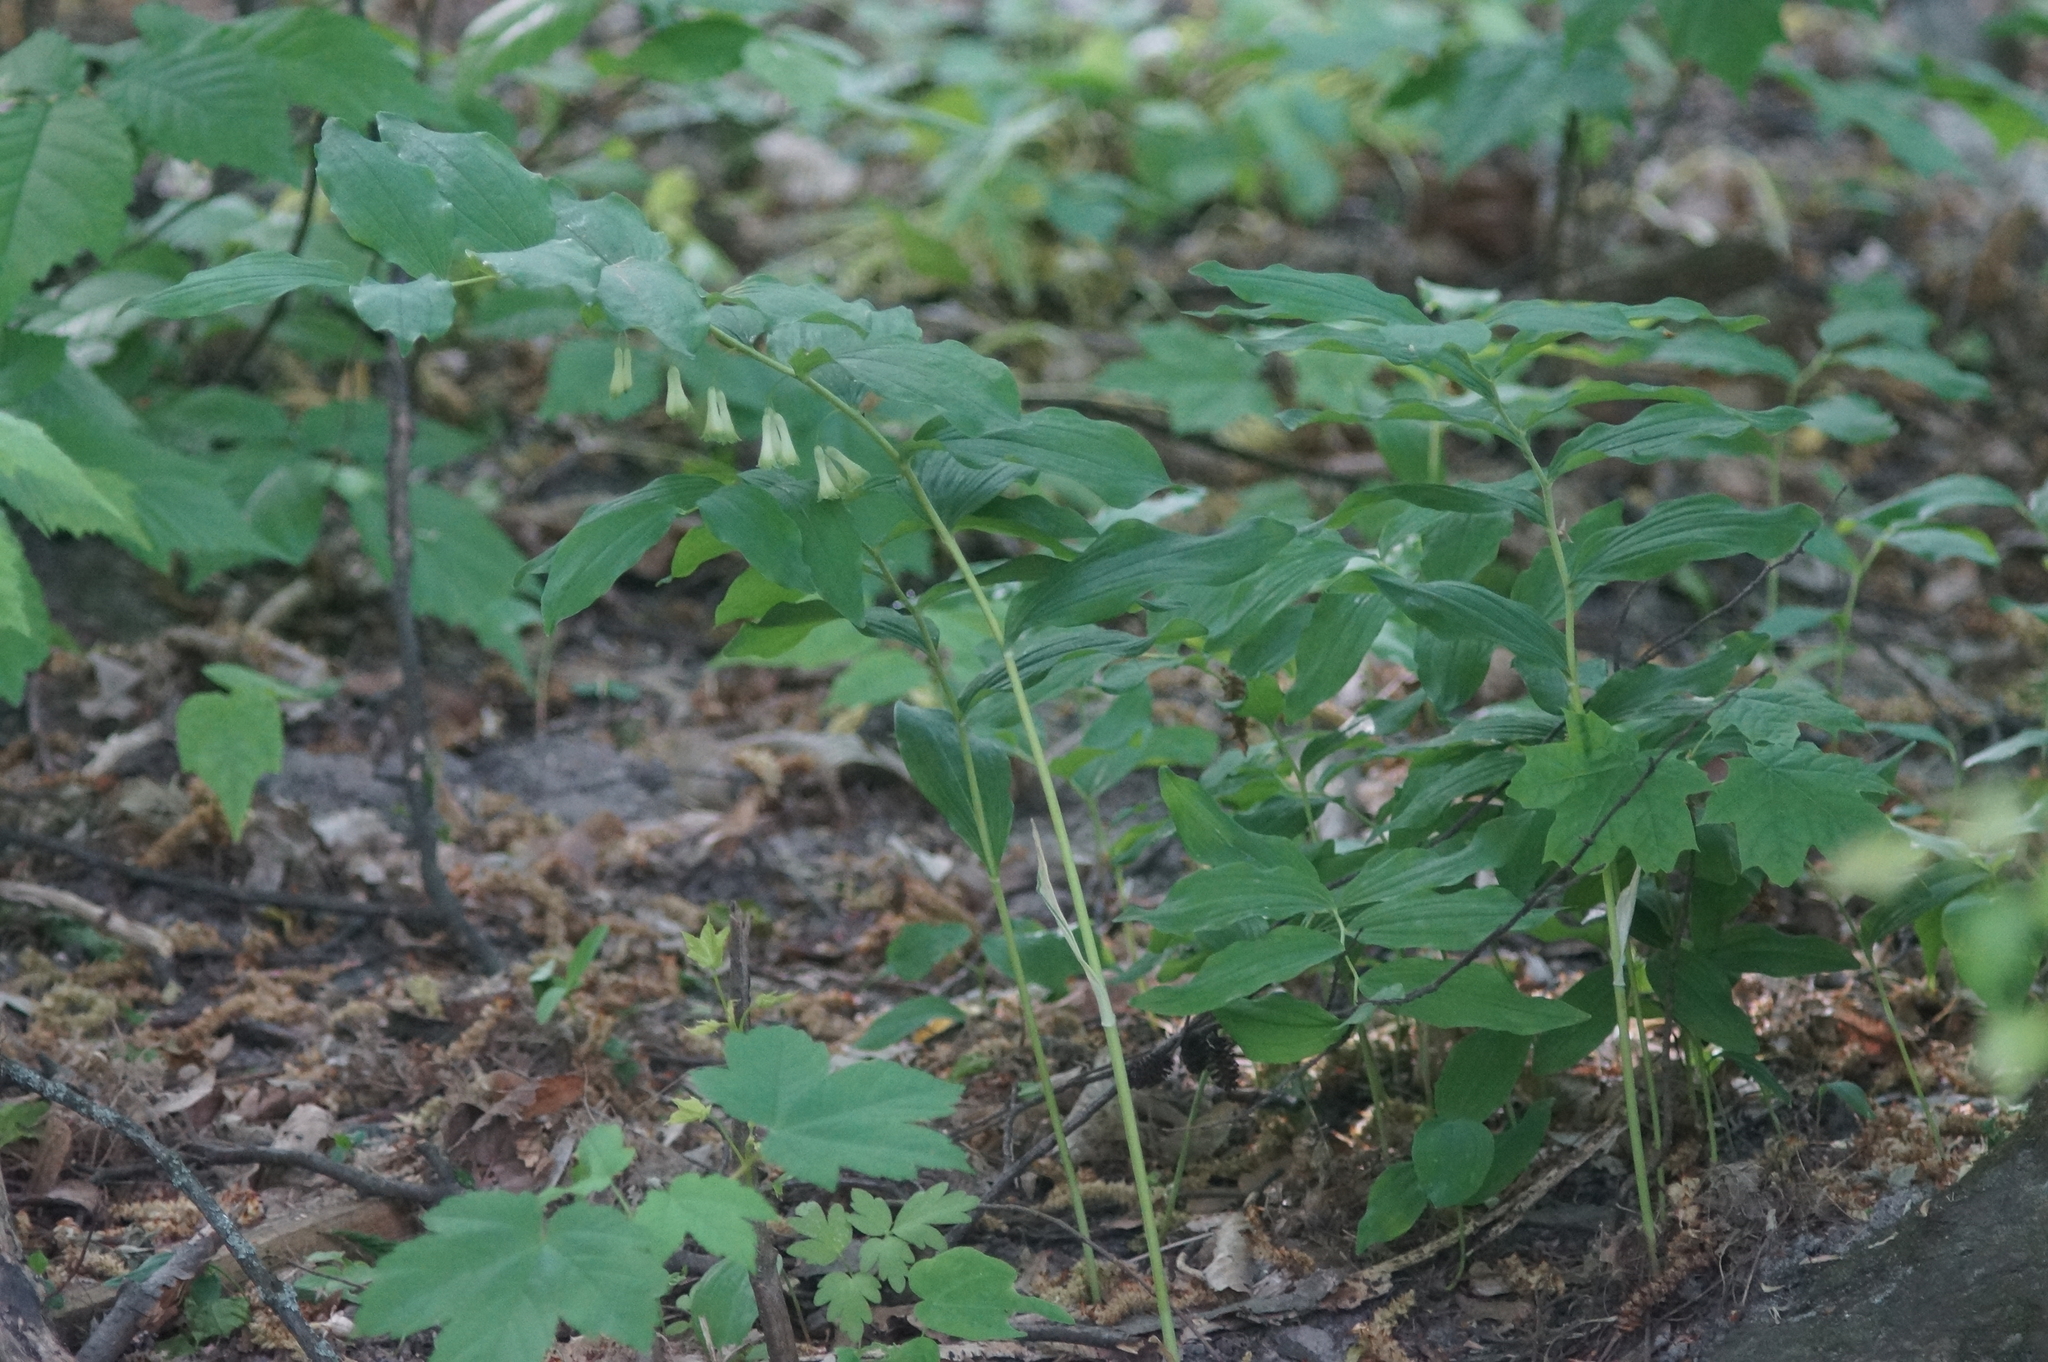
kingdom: Plantae
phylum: Tracheophyta
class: Liliopsida
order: Asparagales
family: Asparagaceae
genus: Polygonatum
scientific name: Polygonatum multiflorum
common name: Solomon's-seal
